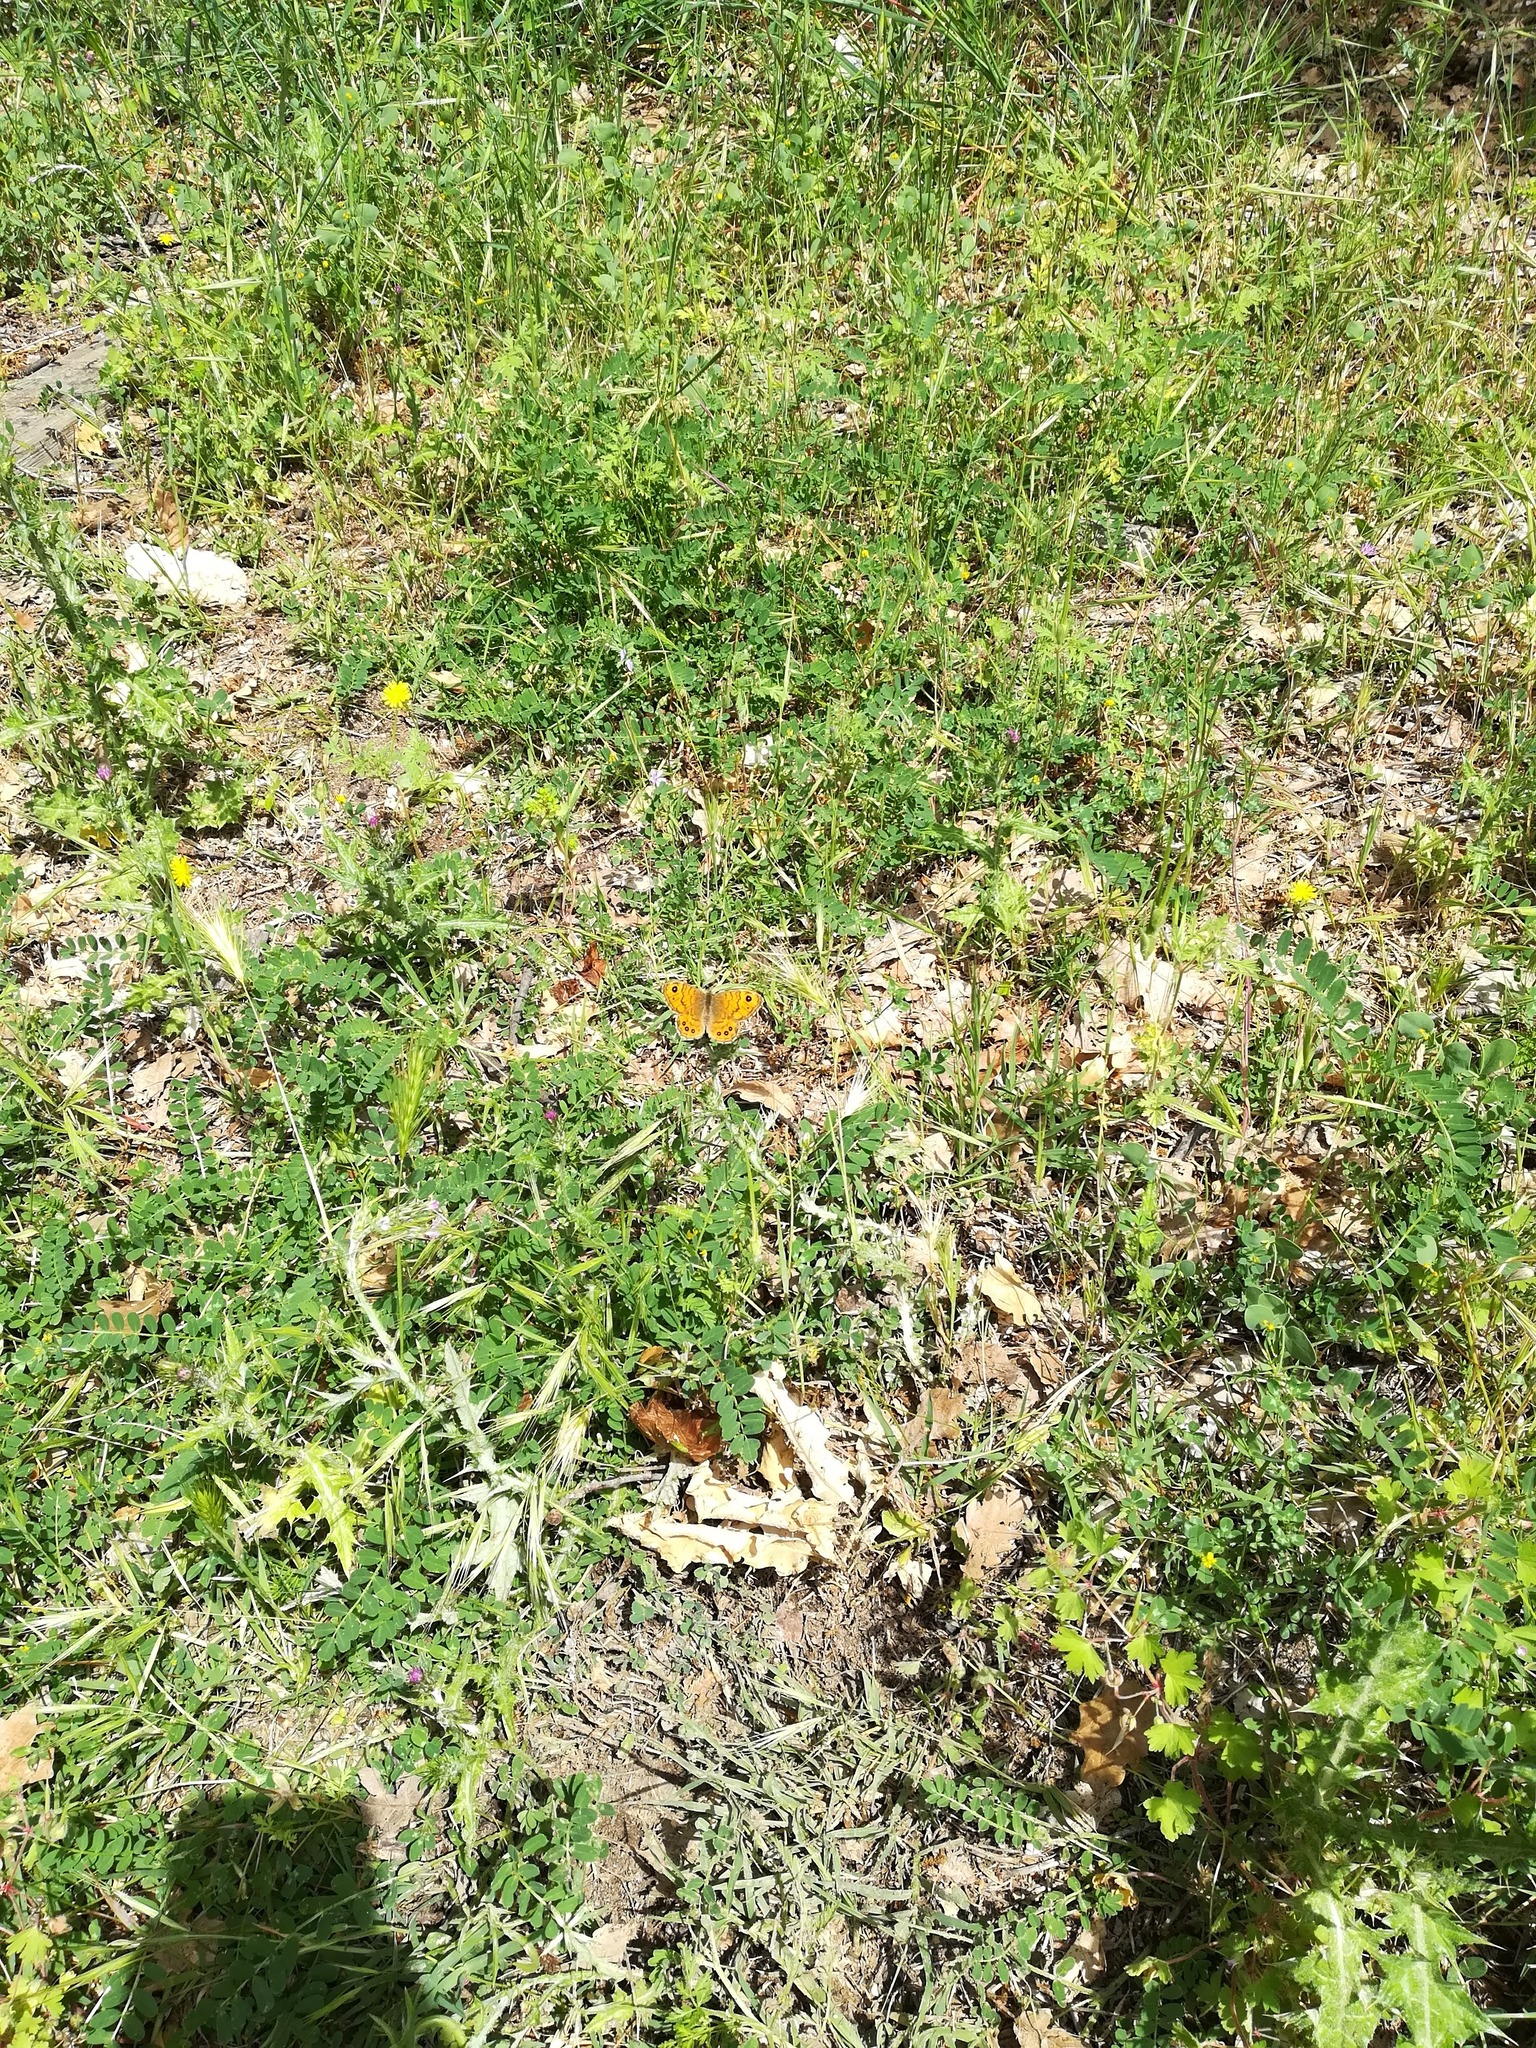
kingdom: Animalia
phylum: Arthropoda
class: Insecta
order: Lepidoptera
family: Nymphalidae
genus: Pararge
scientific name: Pararge Lasiommata megera
